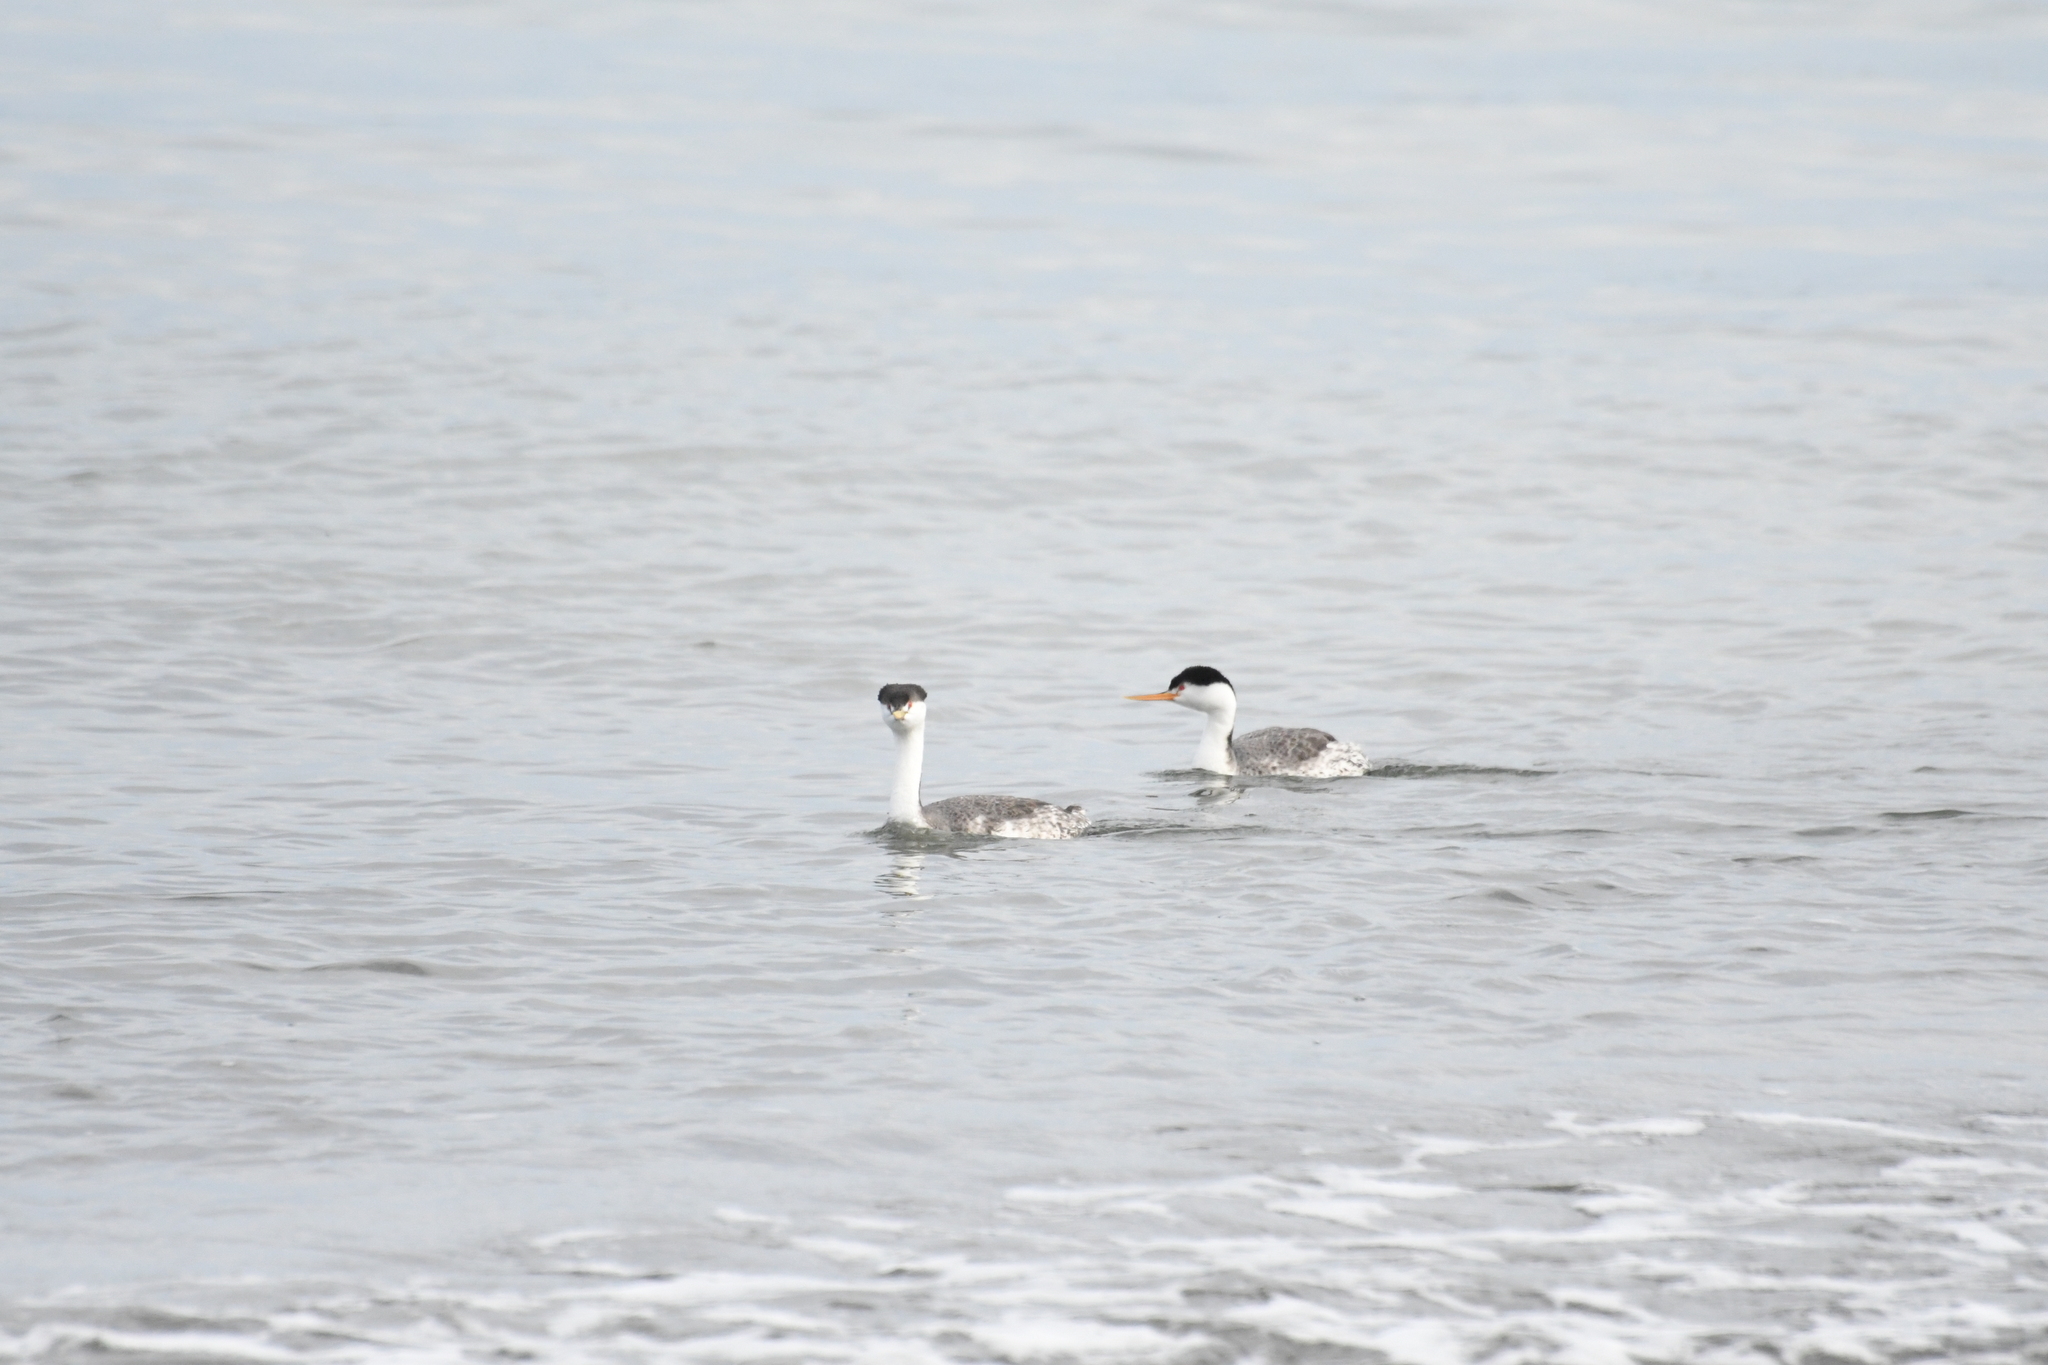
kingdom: Animalia
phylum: Chordata
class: Aves
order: Podicipediformes
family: Podicipedidae
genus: Aechmophorus
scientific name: Aechmophorus clarkii
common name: Clark's grebe
